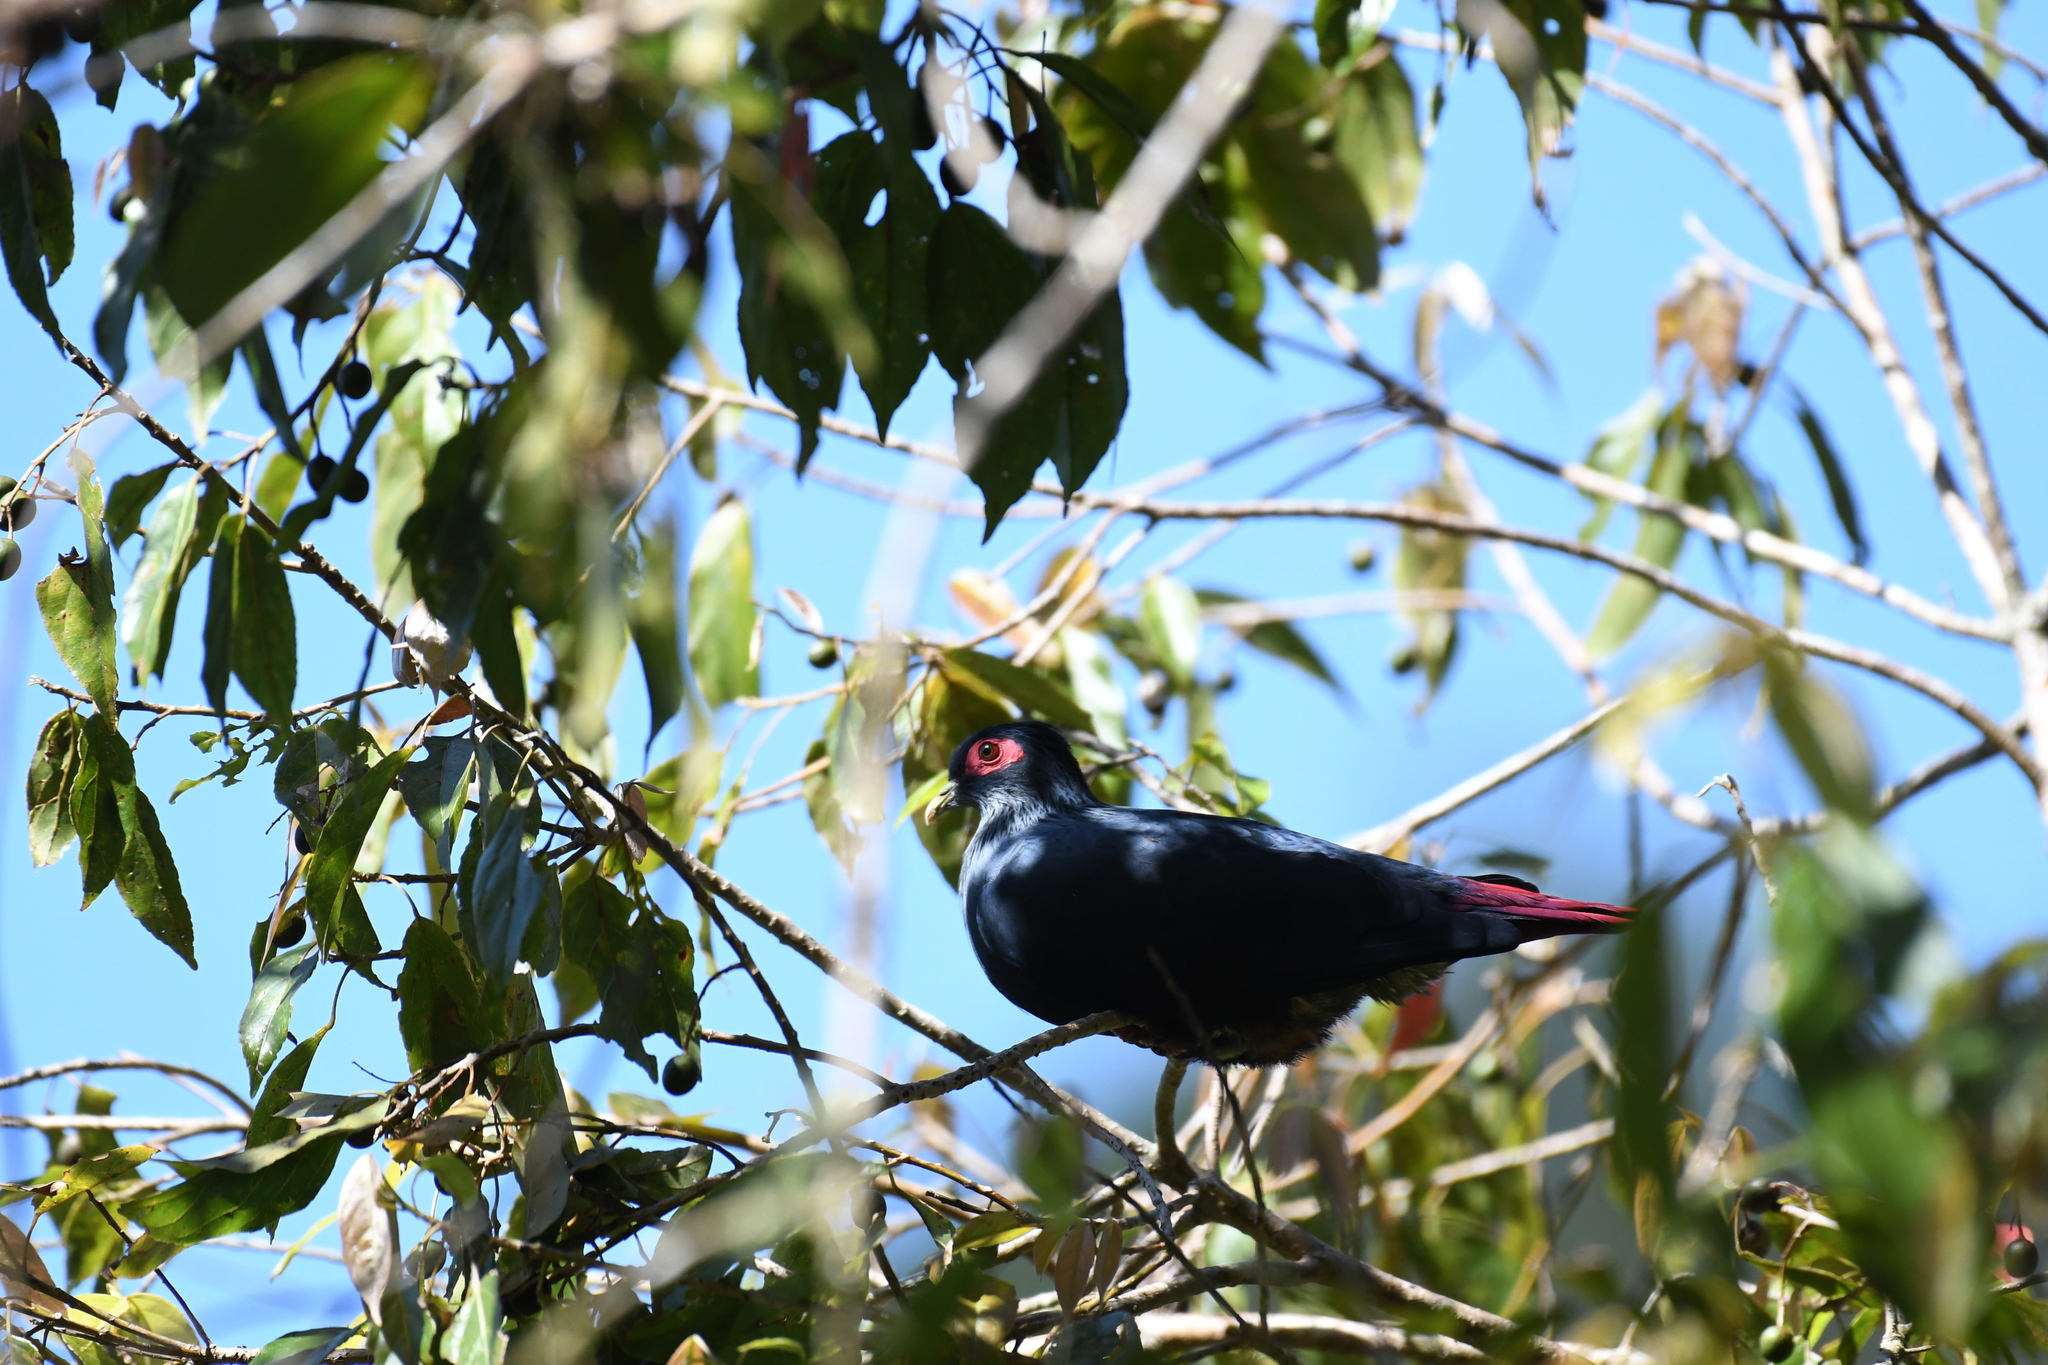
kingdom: Animalia
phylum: Chordata
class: Aves
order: Columbiformes
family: Columbidae
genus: Alectroenas
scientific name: Alectroenas madagascariensis
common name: Madagascar blue pigeon
